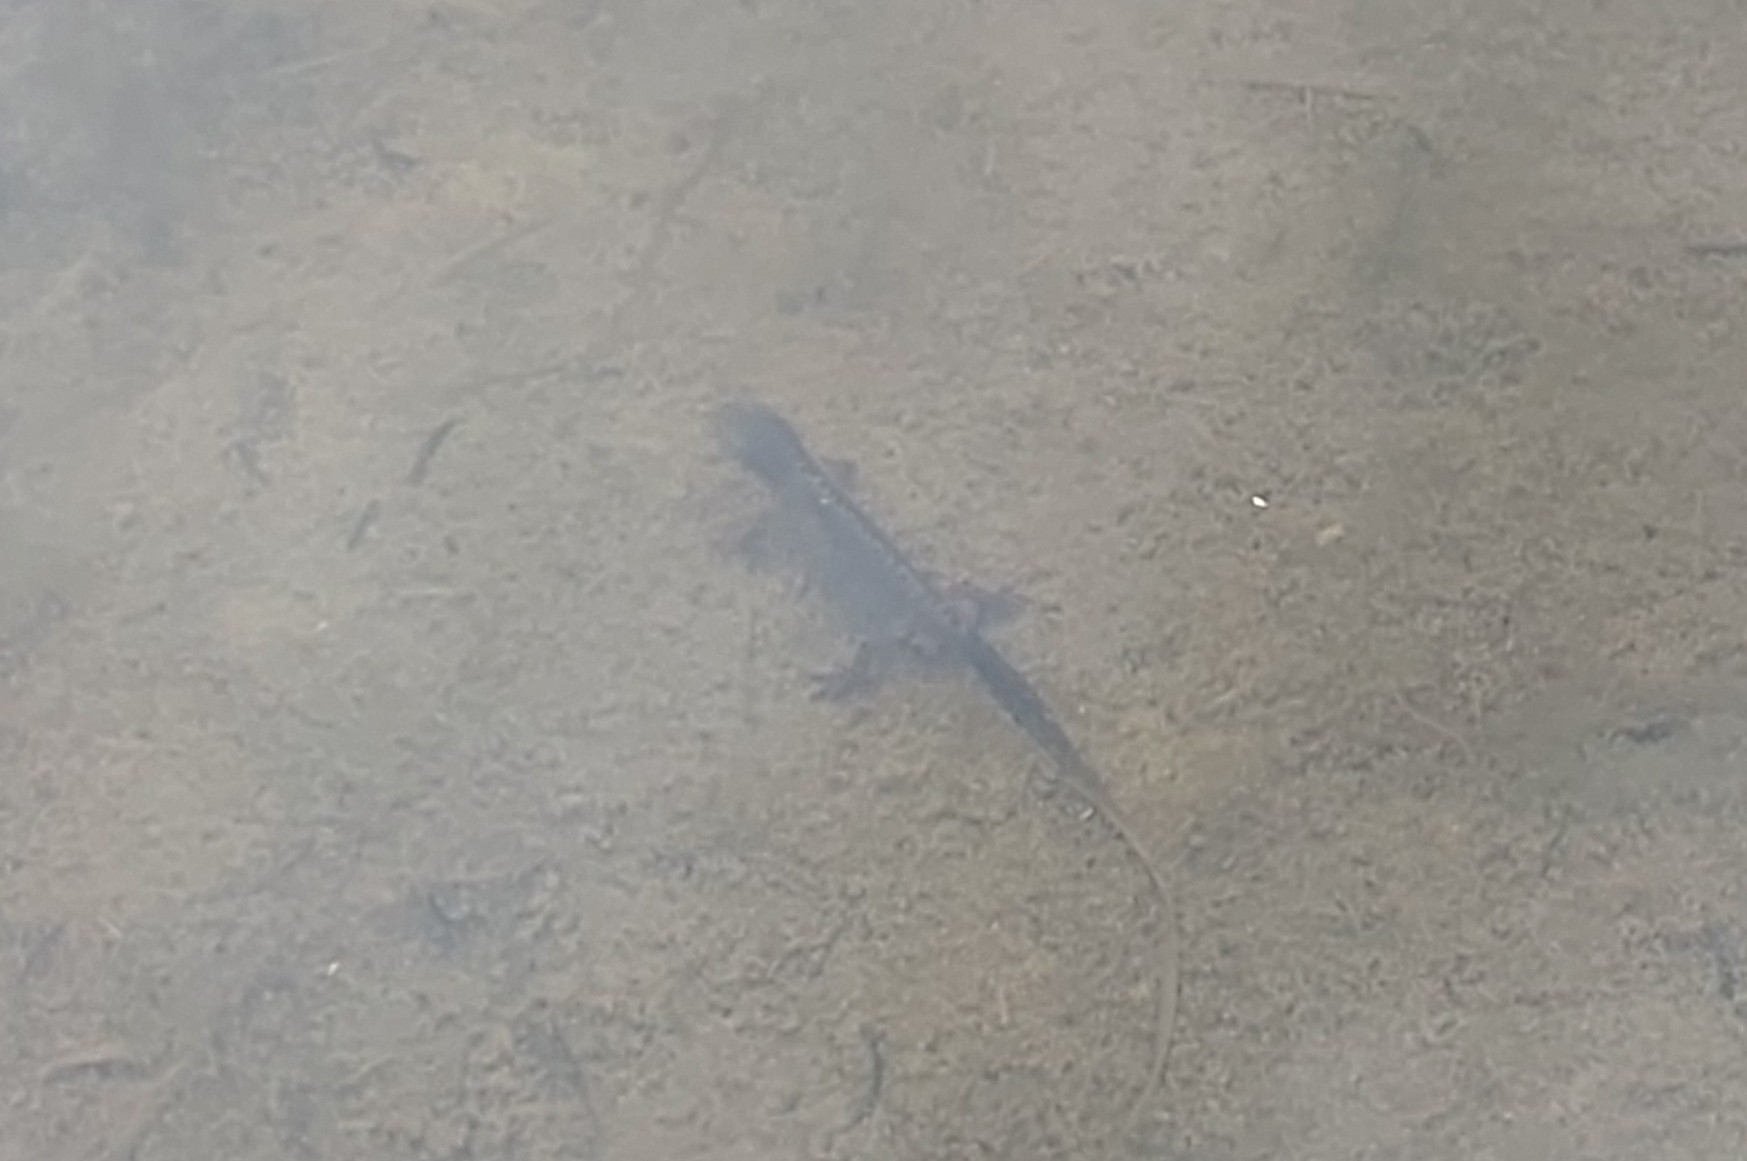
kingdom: Animalia
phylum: Chordata
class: Amphibia
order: Caudata
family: Salamandridae
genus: Ichthyosaura
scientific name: Ichthyosaura alpestris
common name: Alpine newt
